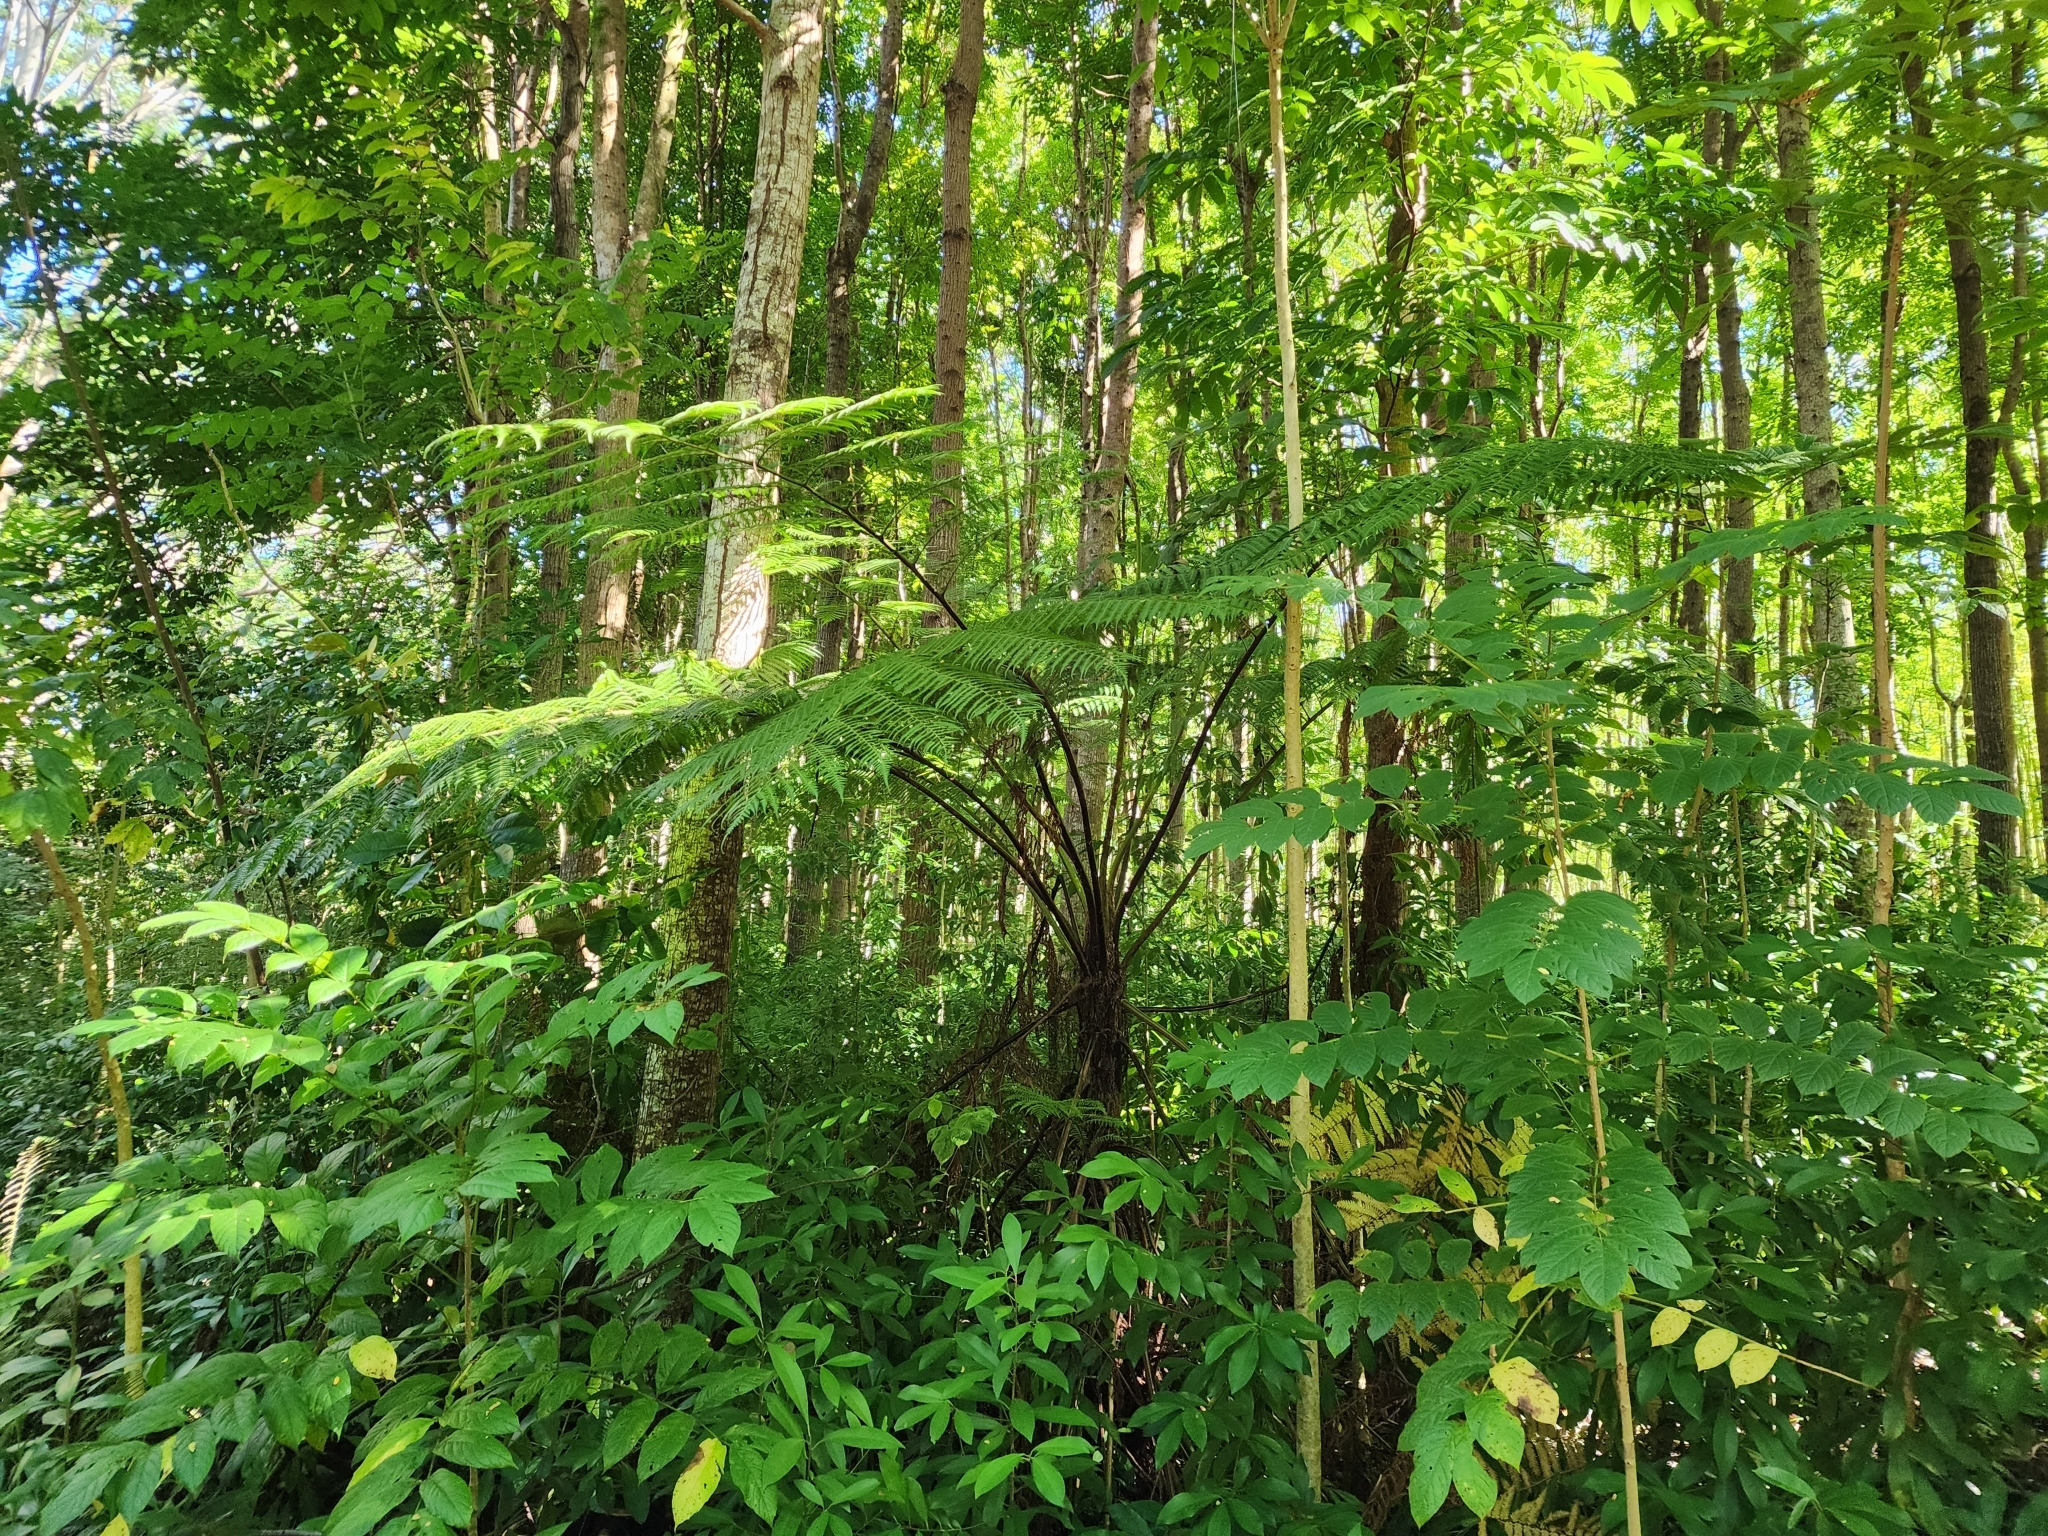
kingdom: Plantae
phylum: Tracheophyta
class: Polypodiopsida
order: Cyatheales
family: Cyatheaceae
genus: Sphaeropteris
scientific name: Sphaeropteris cooperi
